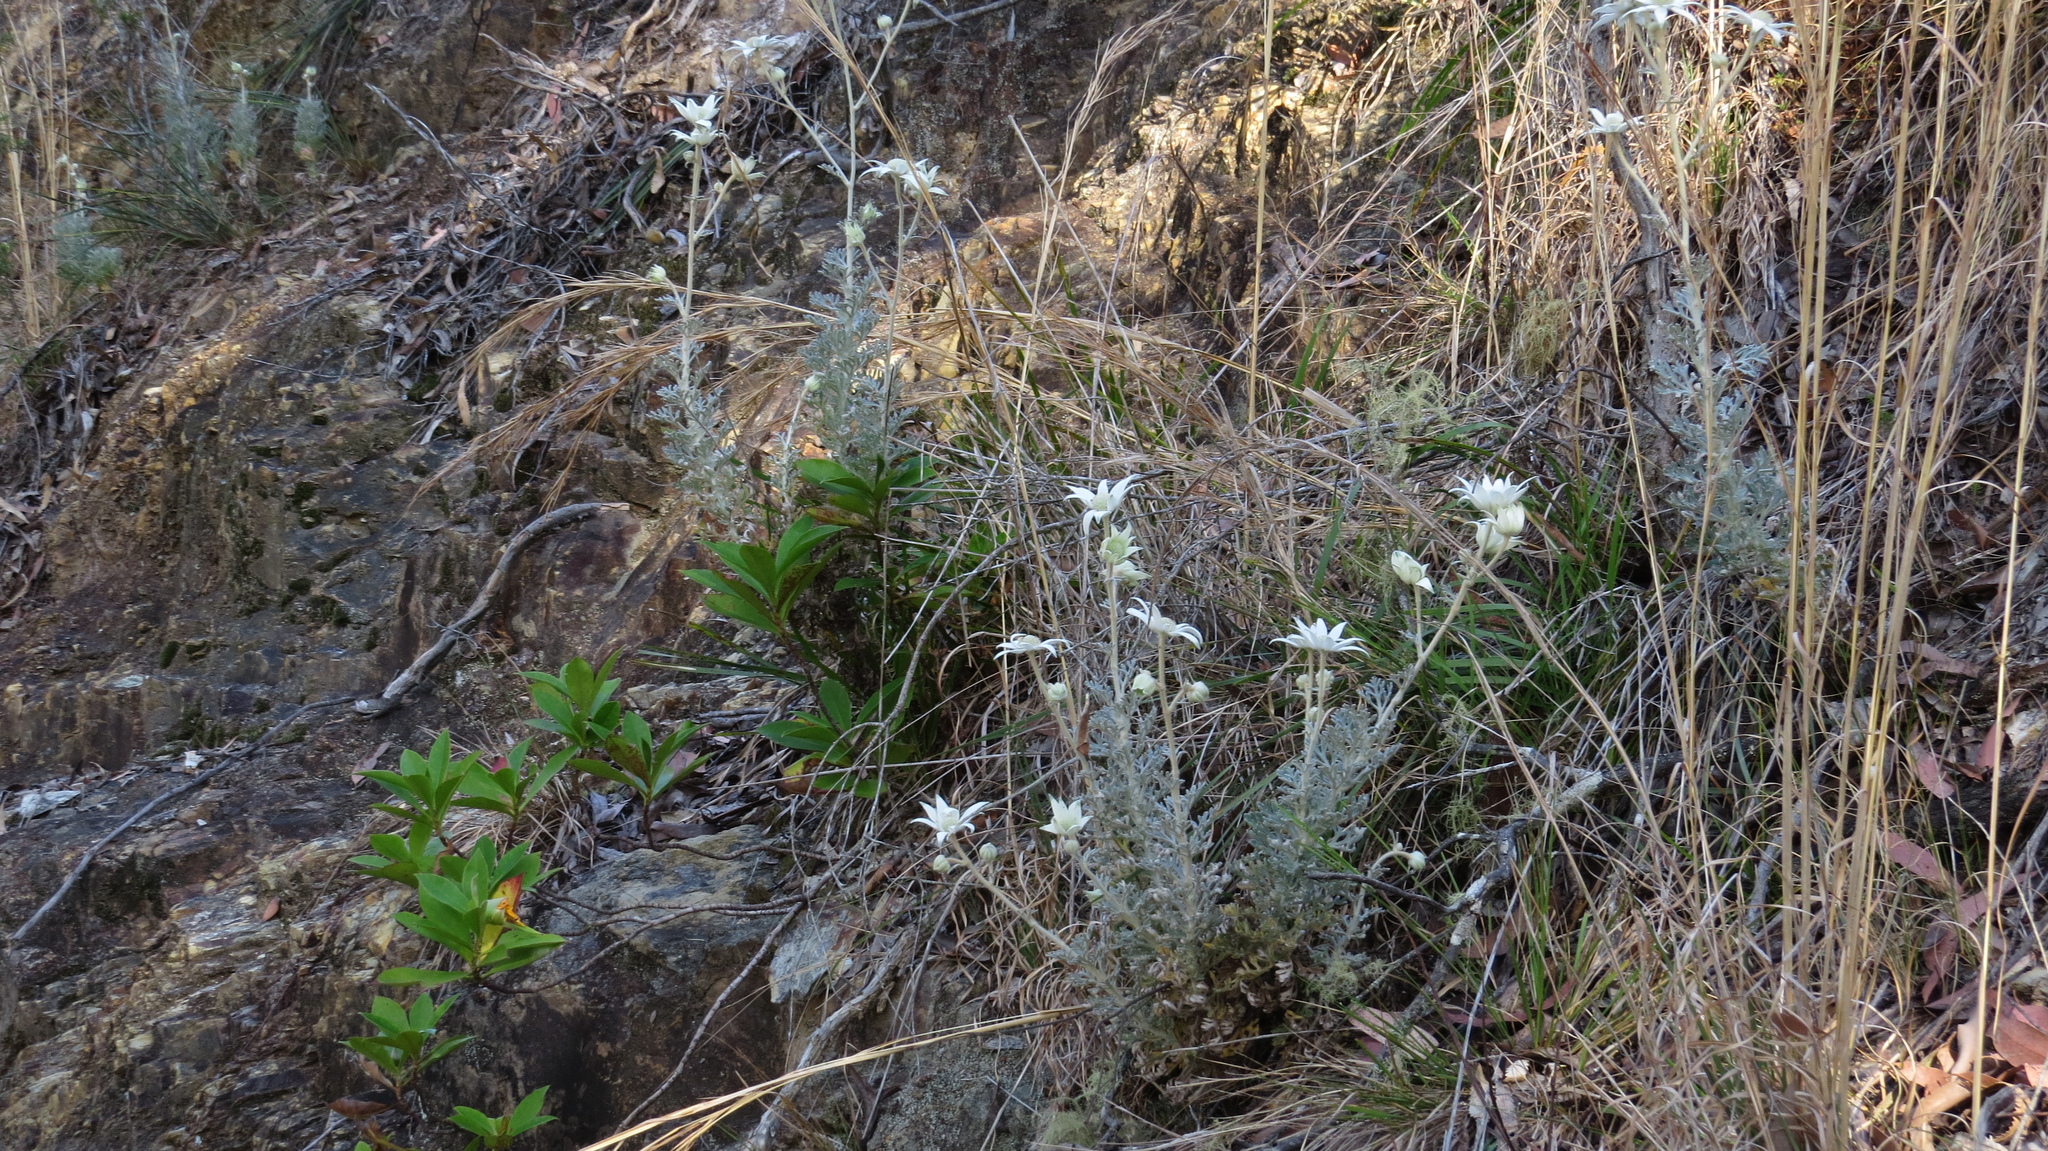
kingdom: Plantae
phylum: Tracheophyta
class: Magnoliopsida
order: Apiales
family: Apiaceae
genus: Actinotus
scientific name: Actinotus helianthi
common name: Flannel-flower
